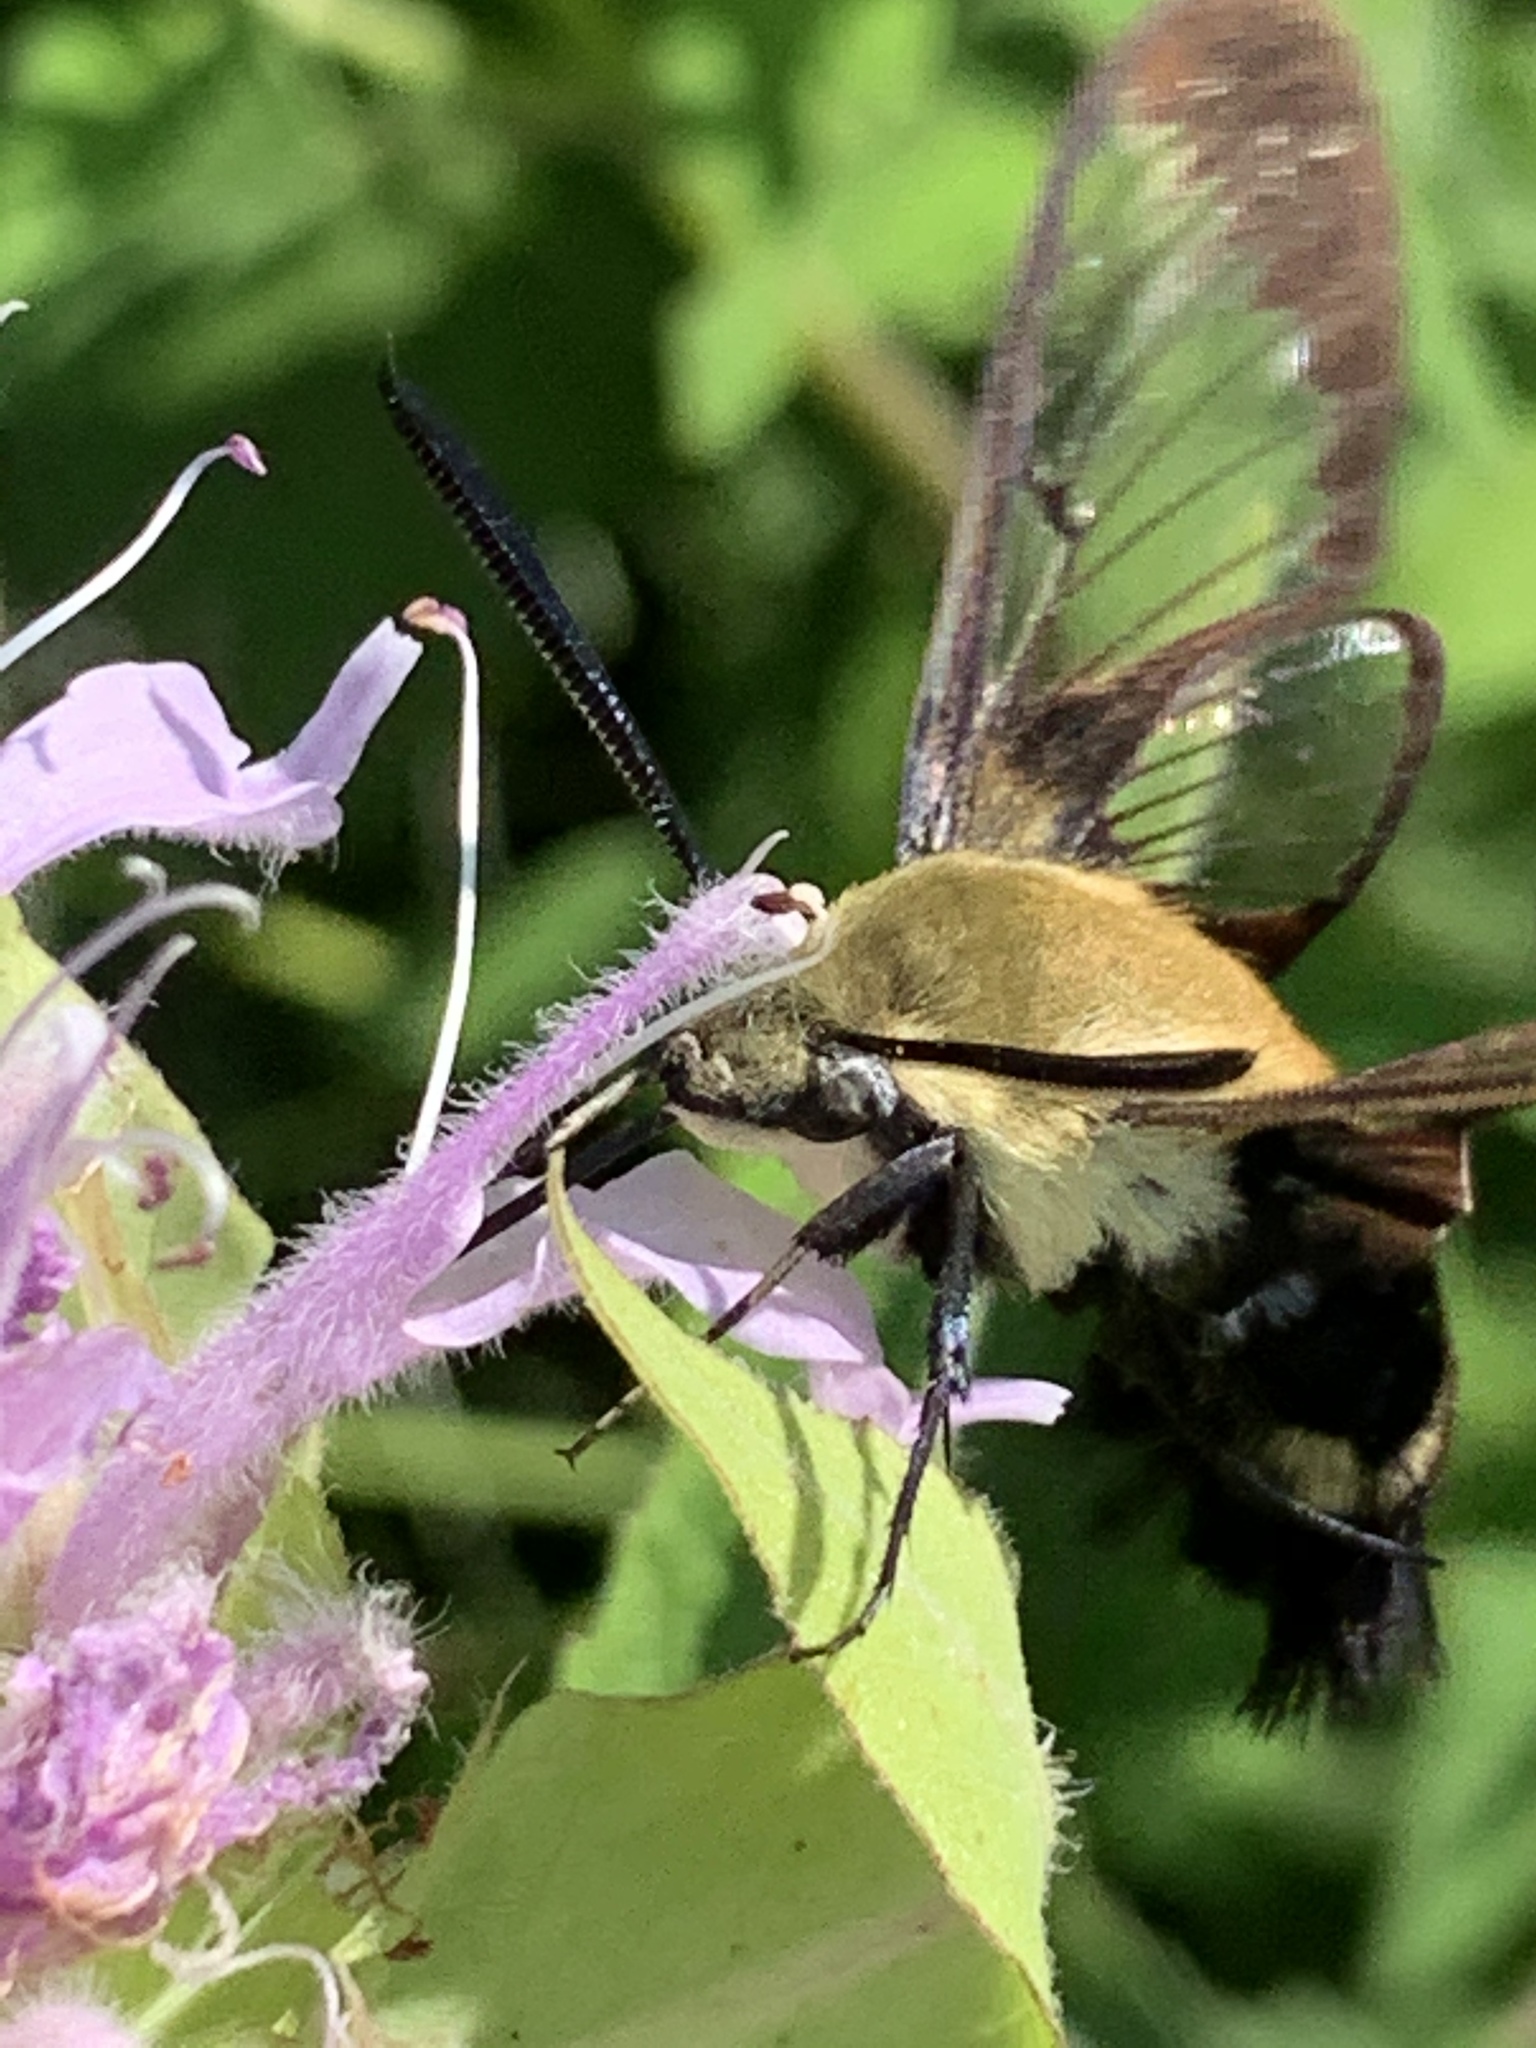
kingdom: Animalia
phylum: Arthropoda
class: Insecta
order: Lepidoptera
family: Sphingidae
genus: Hemaris
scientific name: Hemaris diffinis
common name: Bumblebee moth
